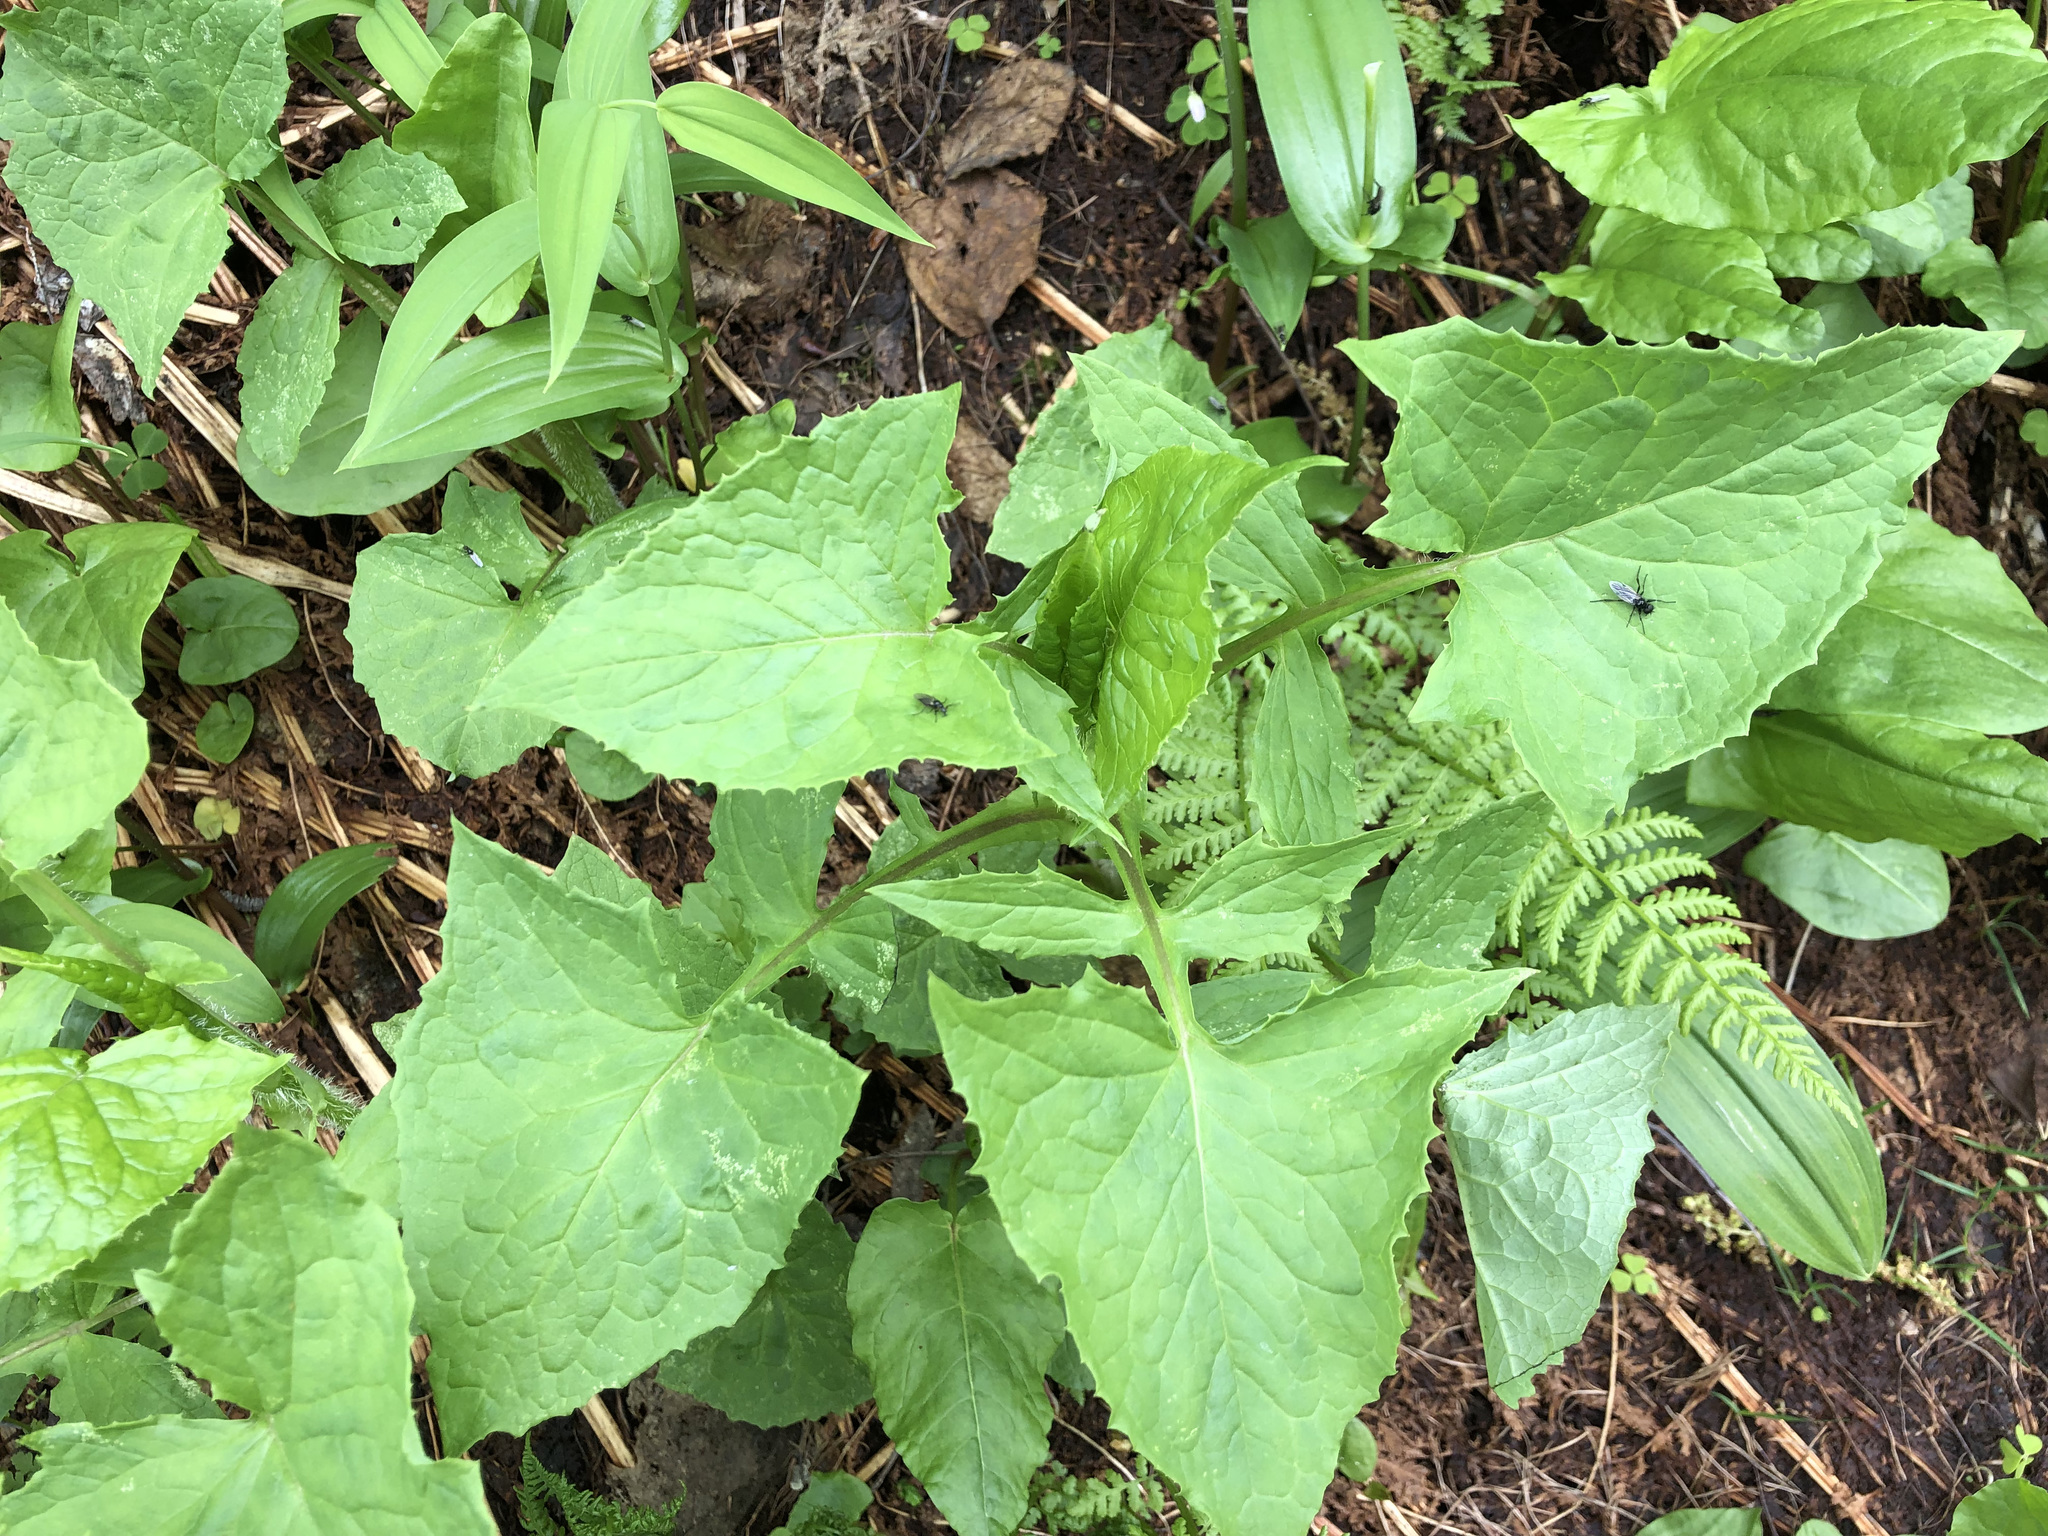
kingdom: Plantae
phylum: Tracheophyta
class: Magnoliopsida
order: Asterales
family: Asteraceae
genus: Cicerbita
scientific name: Cicerbita alpina
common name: Alpine blue-sow-thistle
